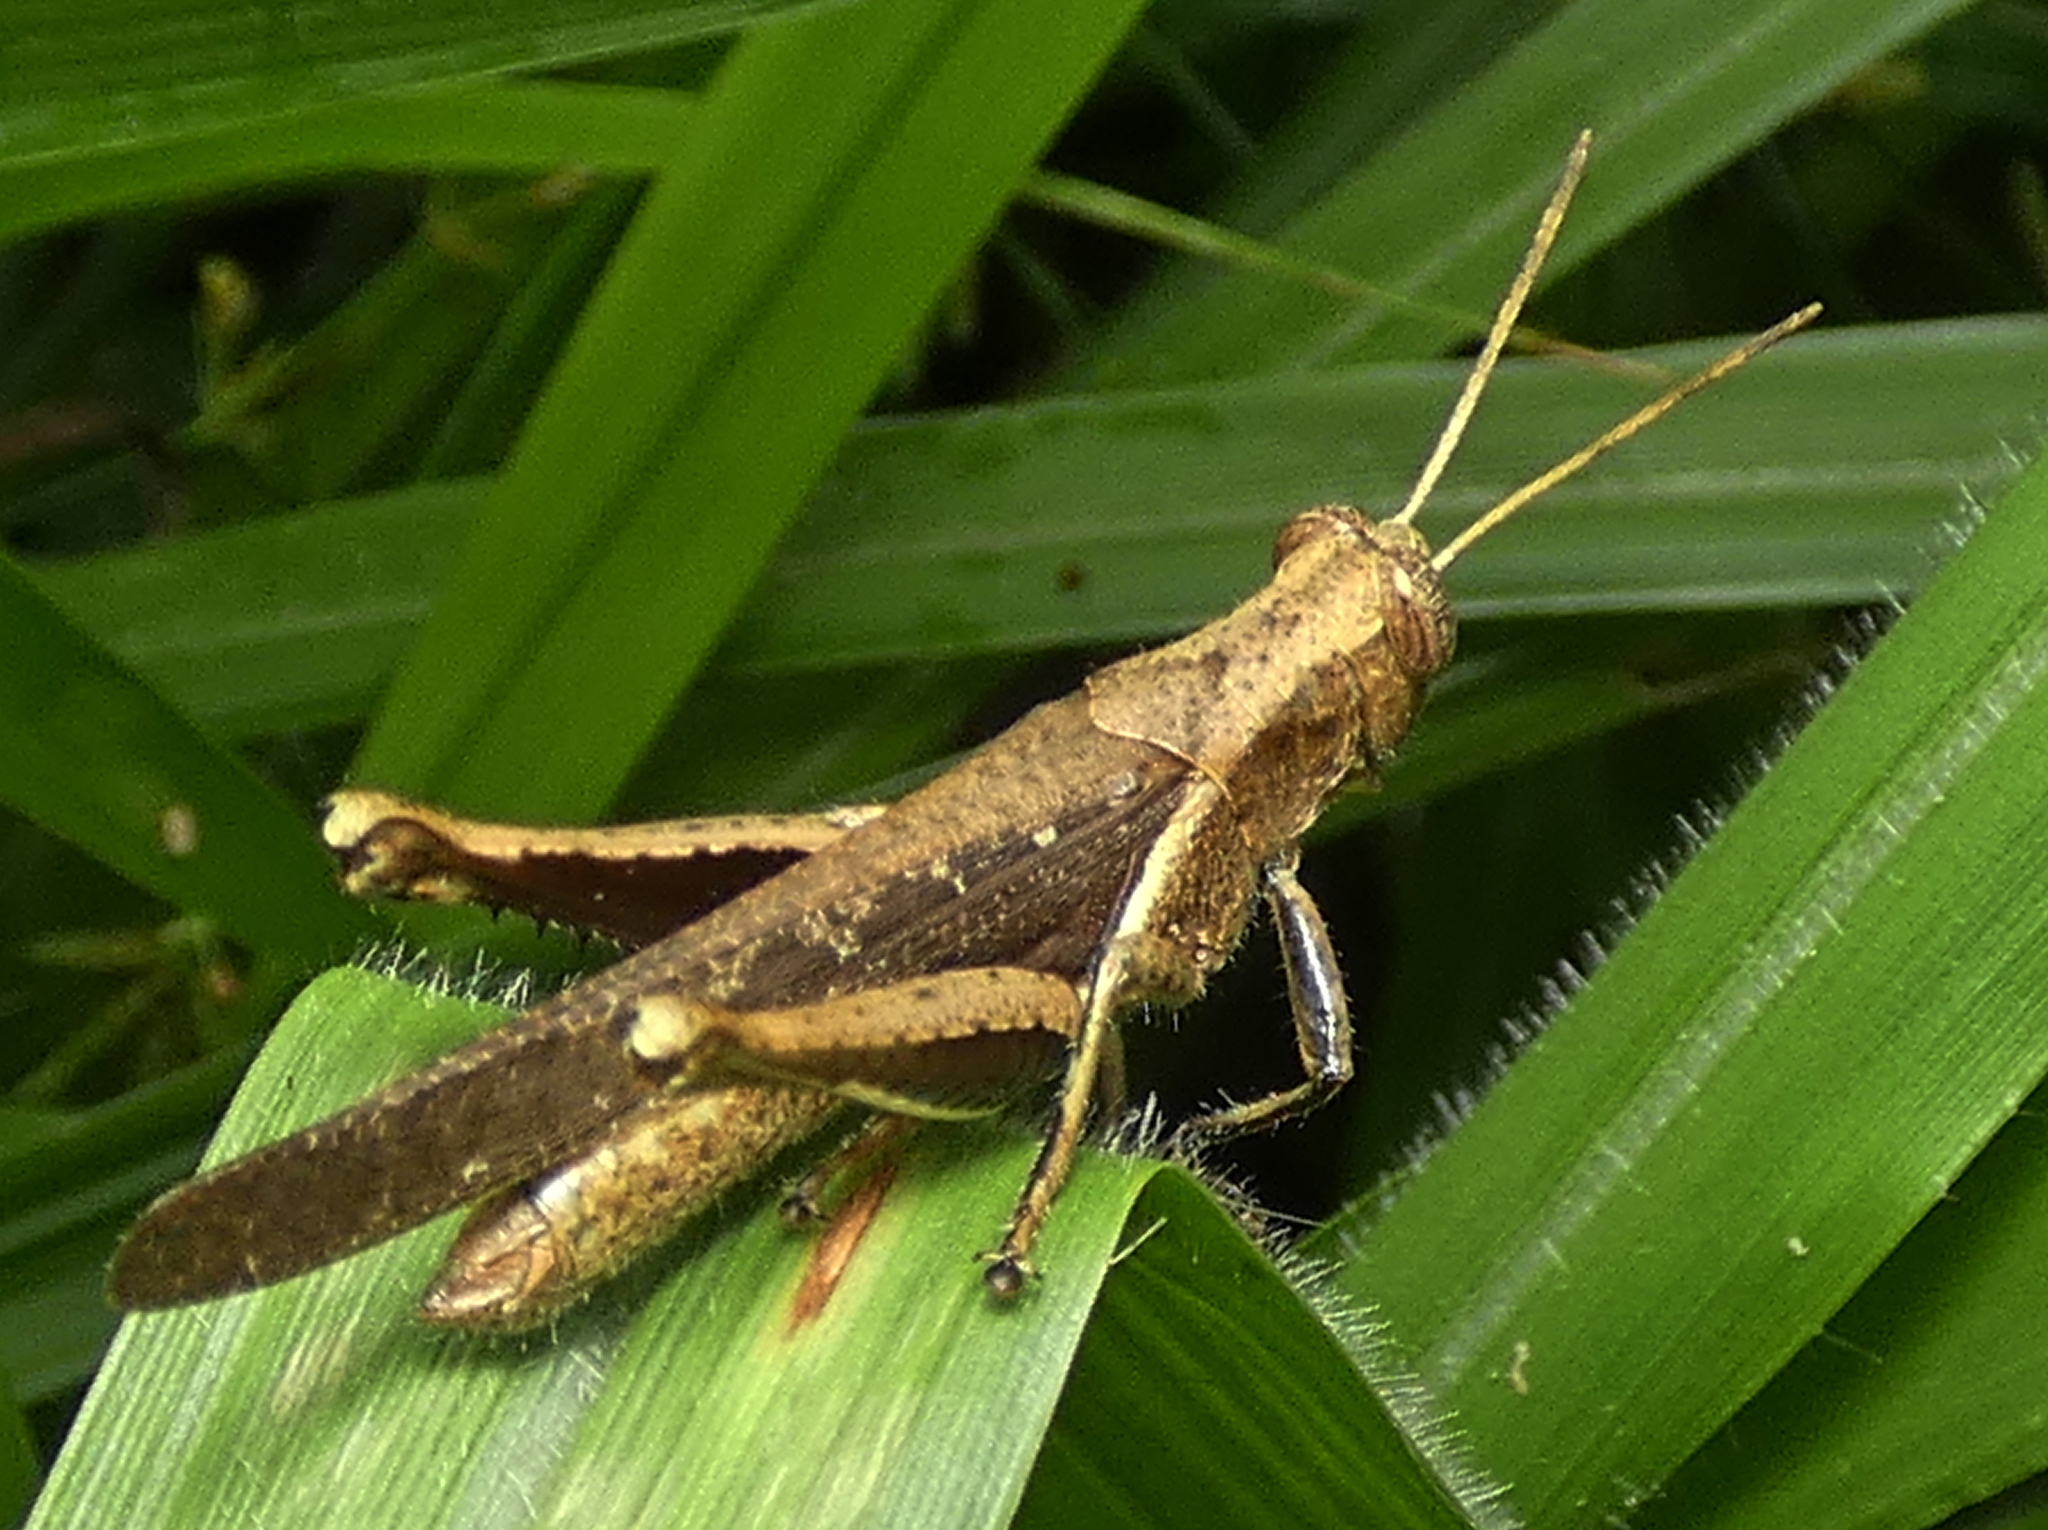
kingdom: Animalia
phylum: Arthropoda
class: Insecta
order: Orthoptera
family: Acrididae
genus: Abracris
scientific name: Abracris flavolineata
